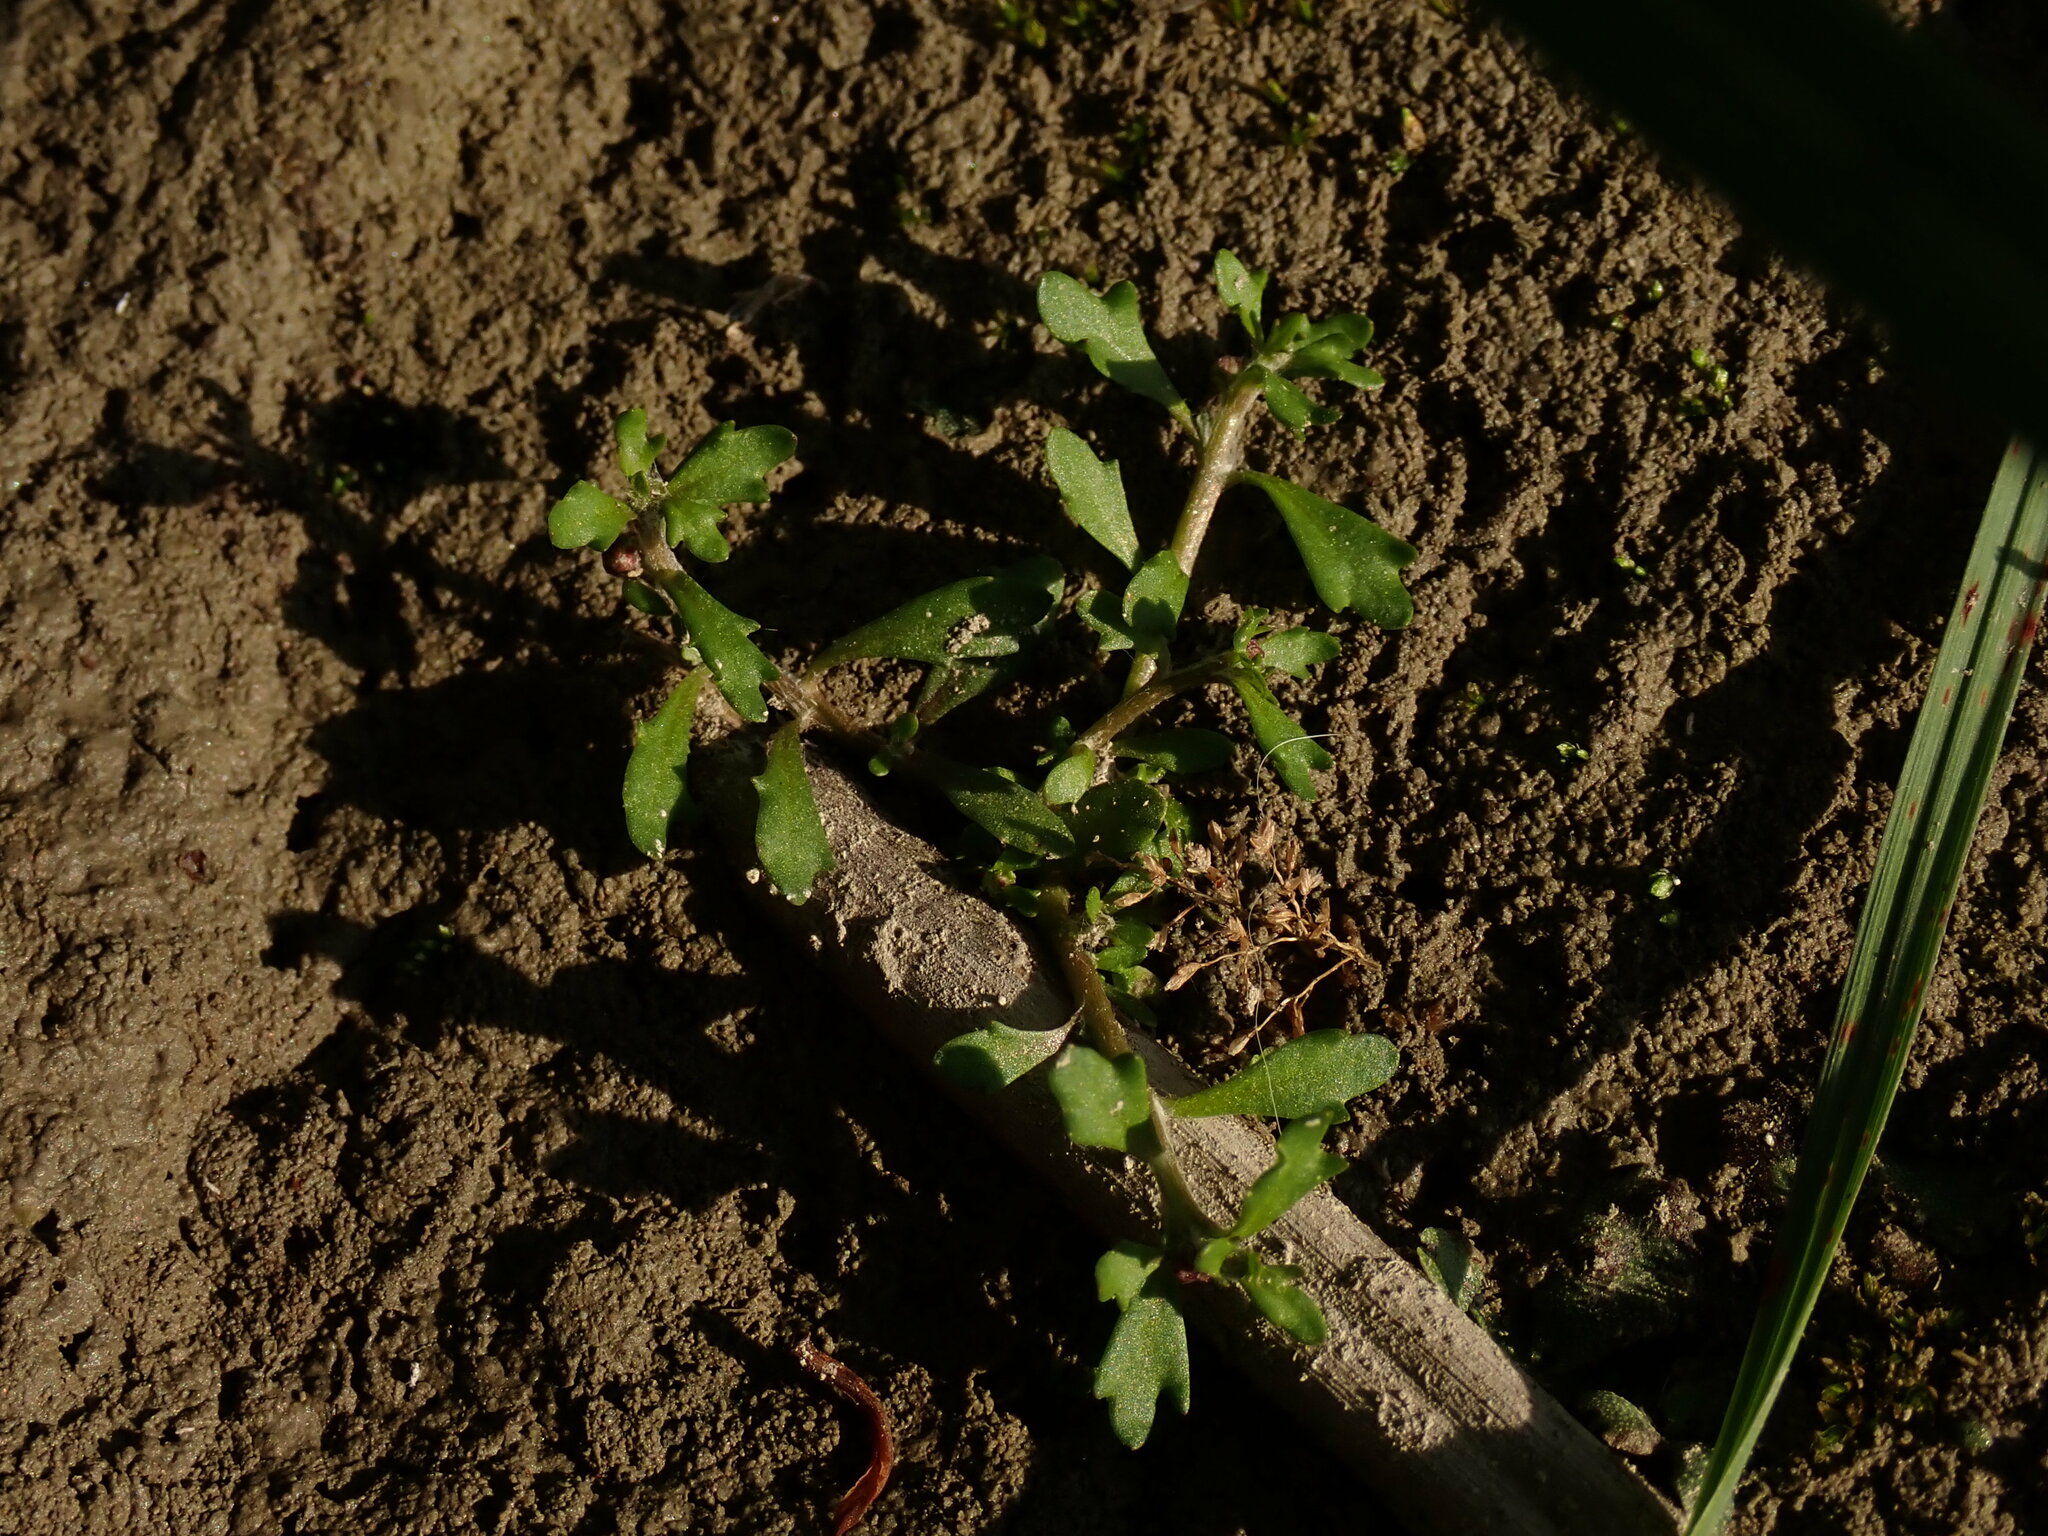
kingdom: Plantae
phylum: Tracheophyta
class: Magnoliopsida
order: Asterales
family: Asteraceae
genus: Centipeda
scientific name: Centipeda minima
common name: Spreading sneezeweed
